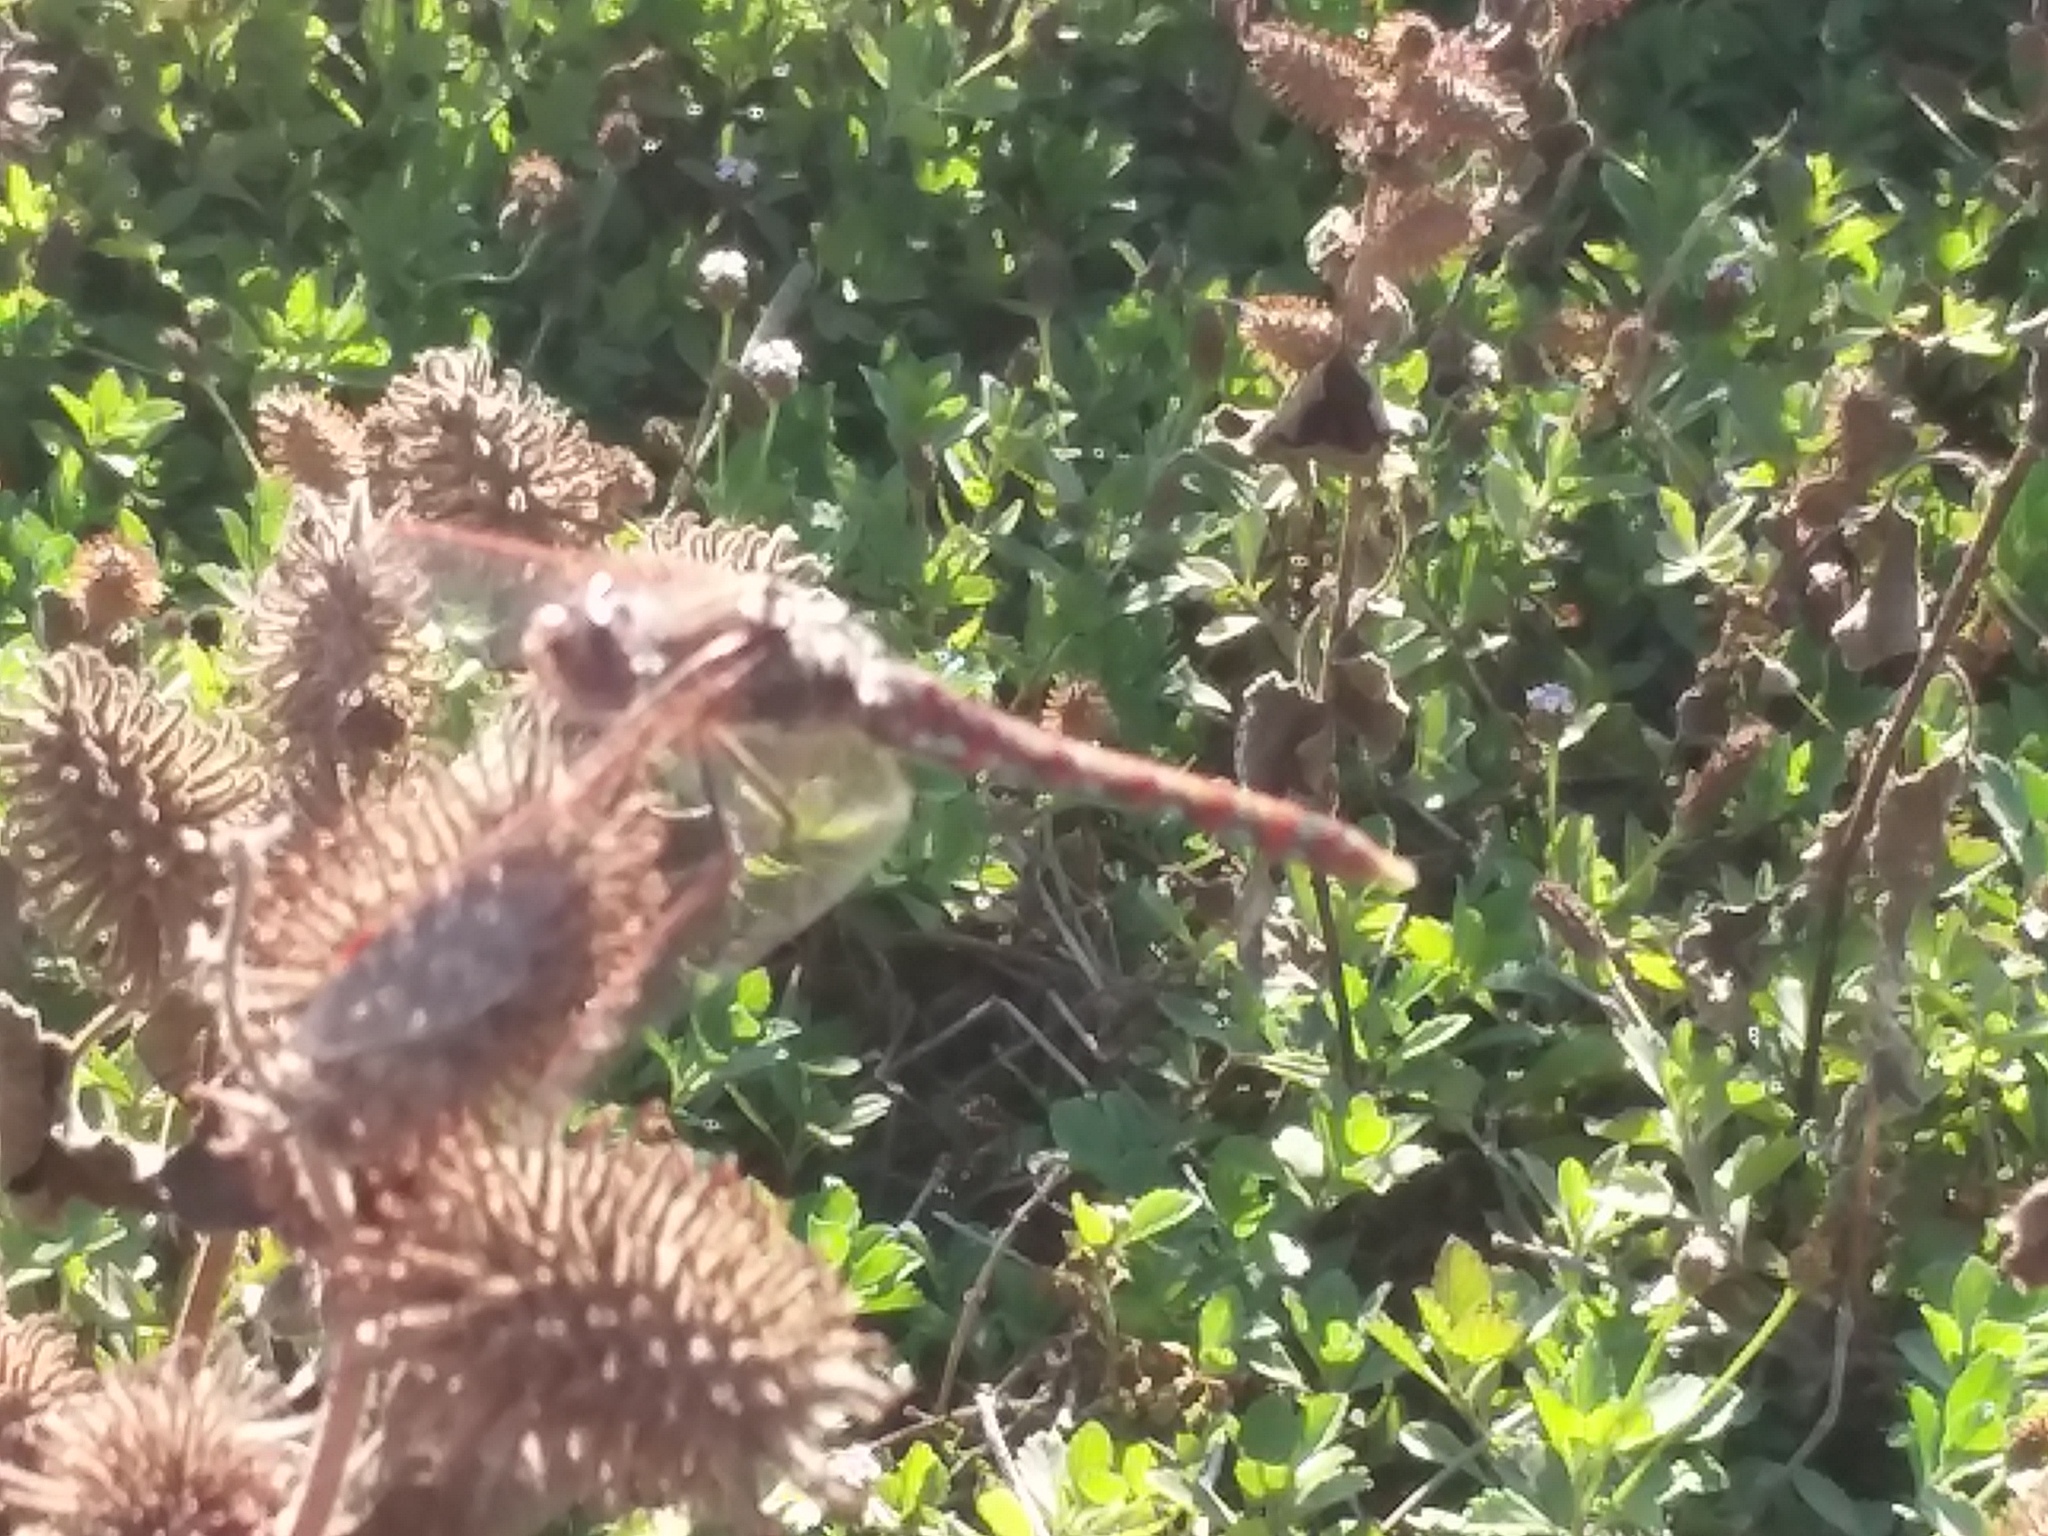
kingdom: Animalia
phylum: Arthropoda
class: Insecta
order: Odonata
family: Libellulidae
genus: Sympetrum
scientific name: Sympetrum corruptum
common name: Variegated meadowhawk
